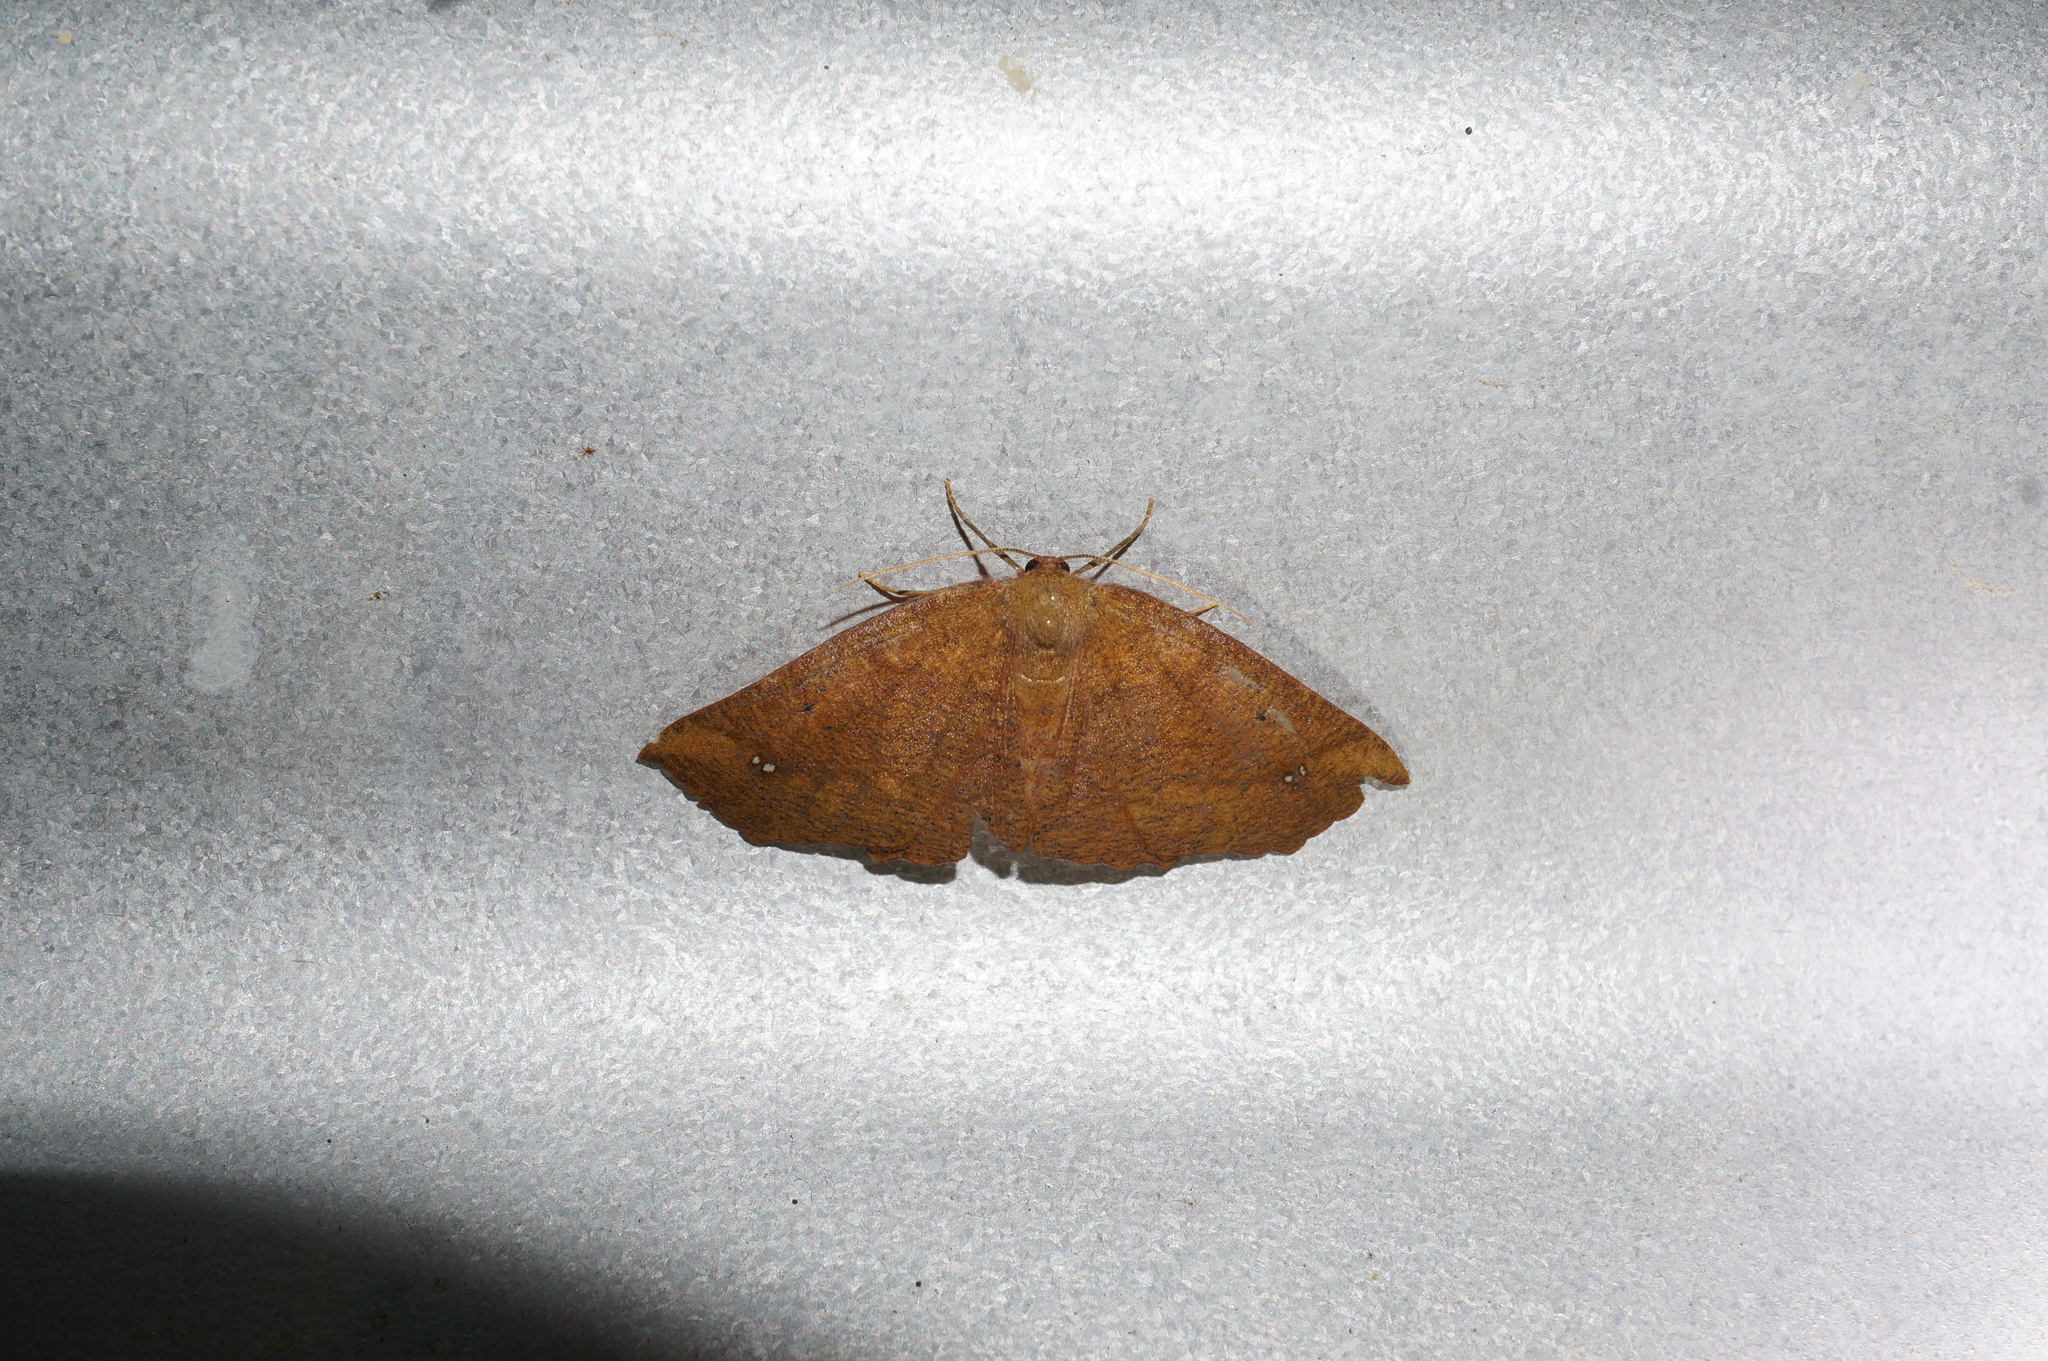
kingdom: Animalia
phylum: Arthropoda
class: Insecta
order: Lepidoptera
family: Geometridae
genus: Xyridacma
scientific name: Xyridacma ustaria
